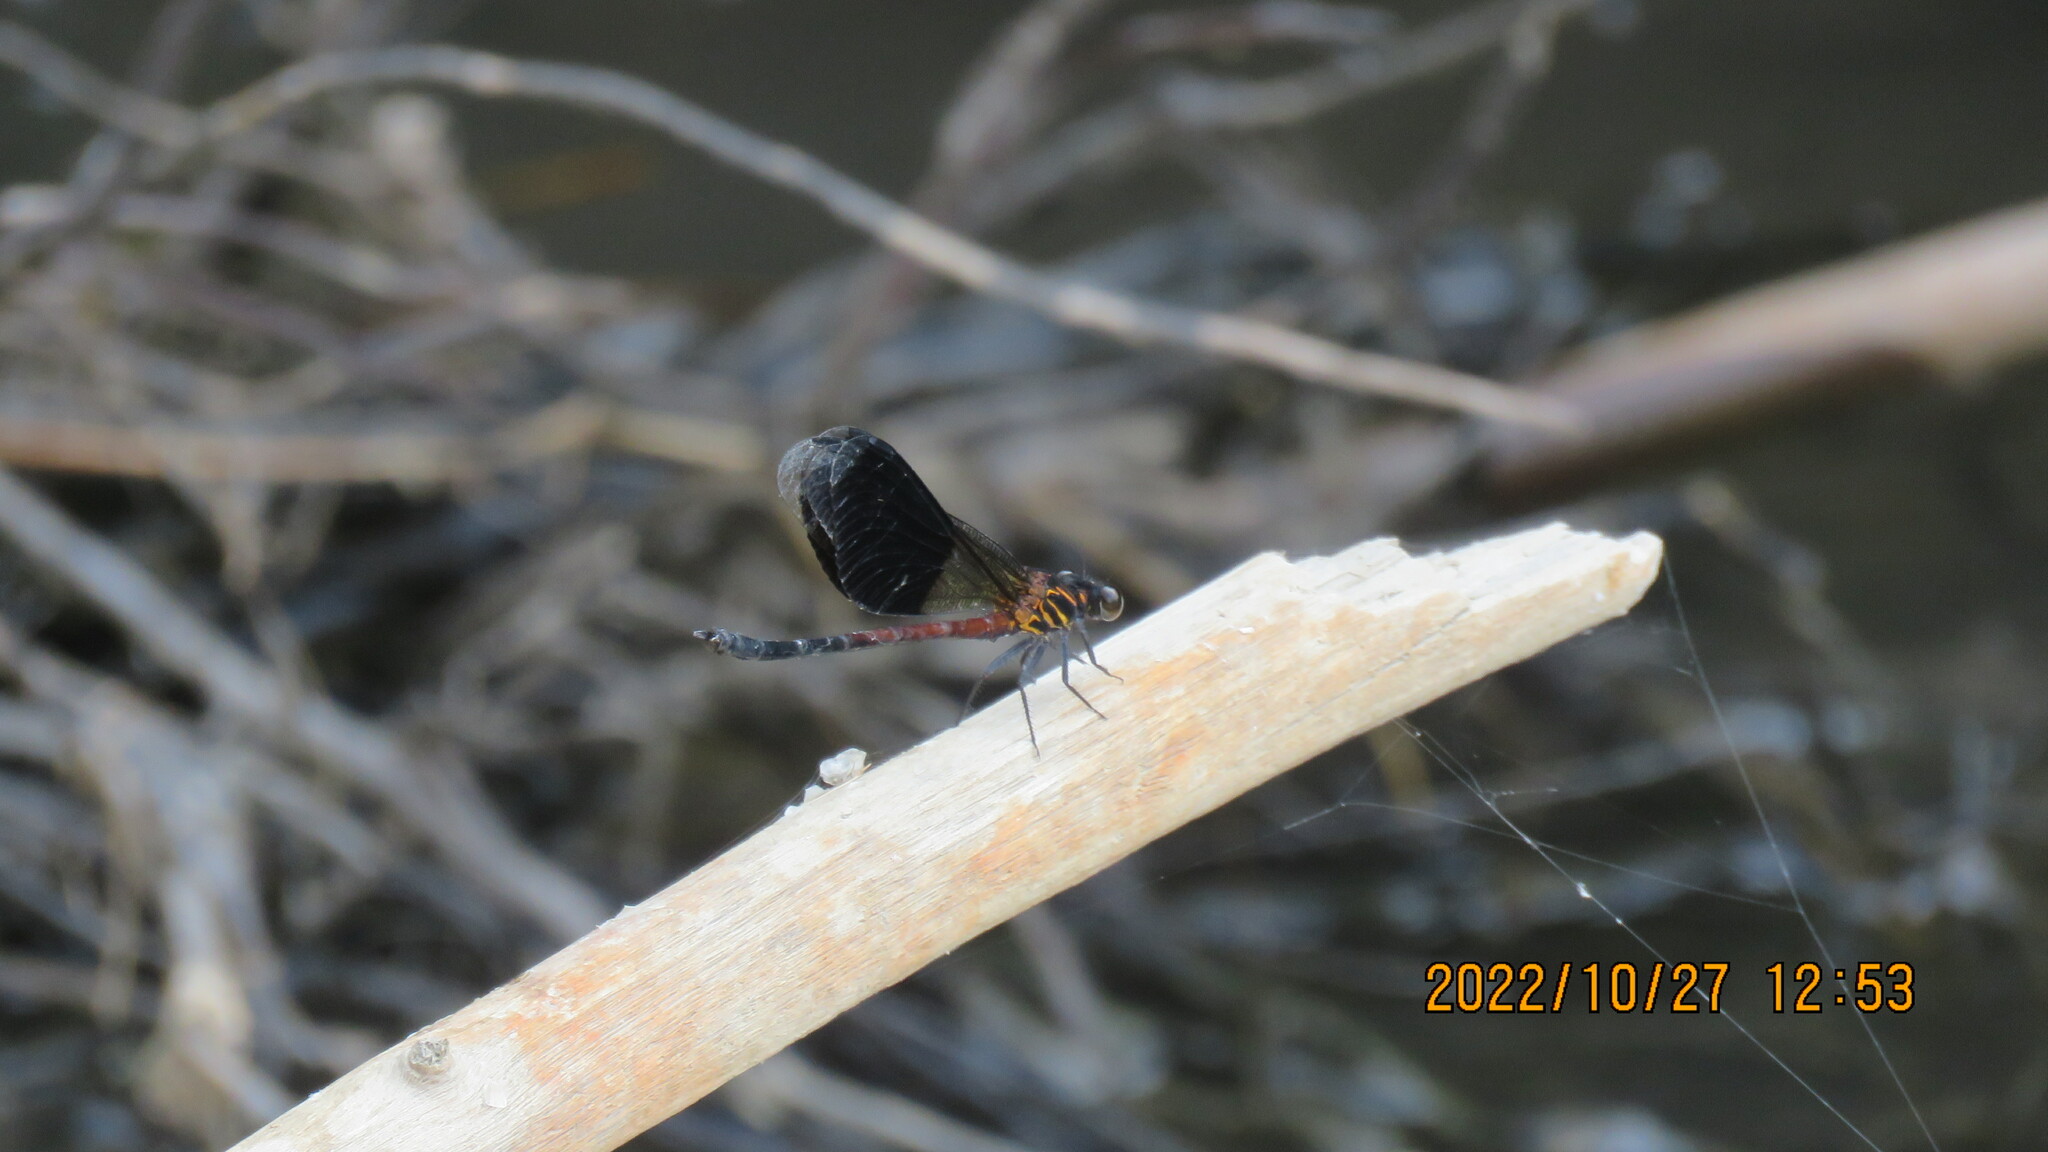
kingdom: Animalia
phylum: Arthropoda
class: Insecta
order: Odonata
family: Euphaeidae
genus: Euphaea
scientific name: Euphaea formosa
